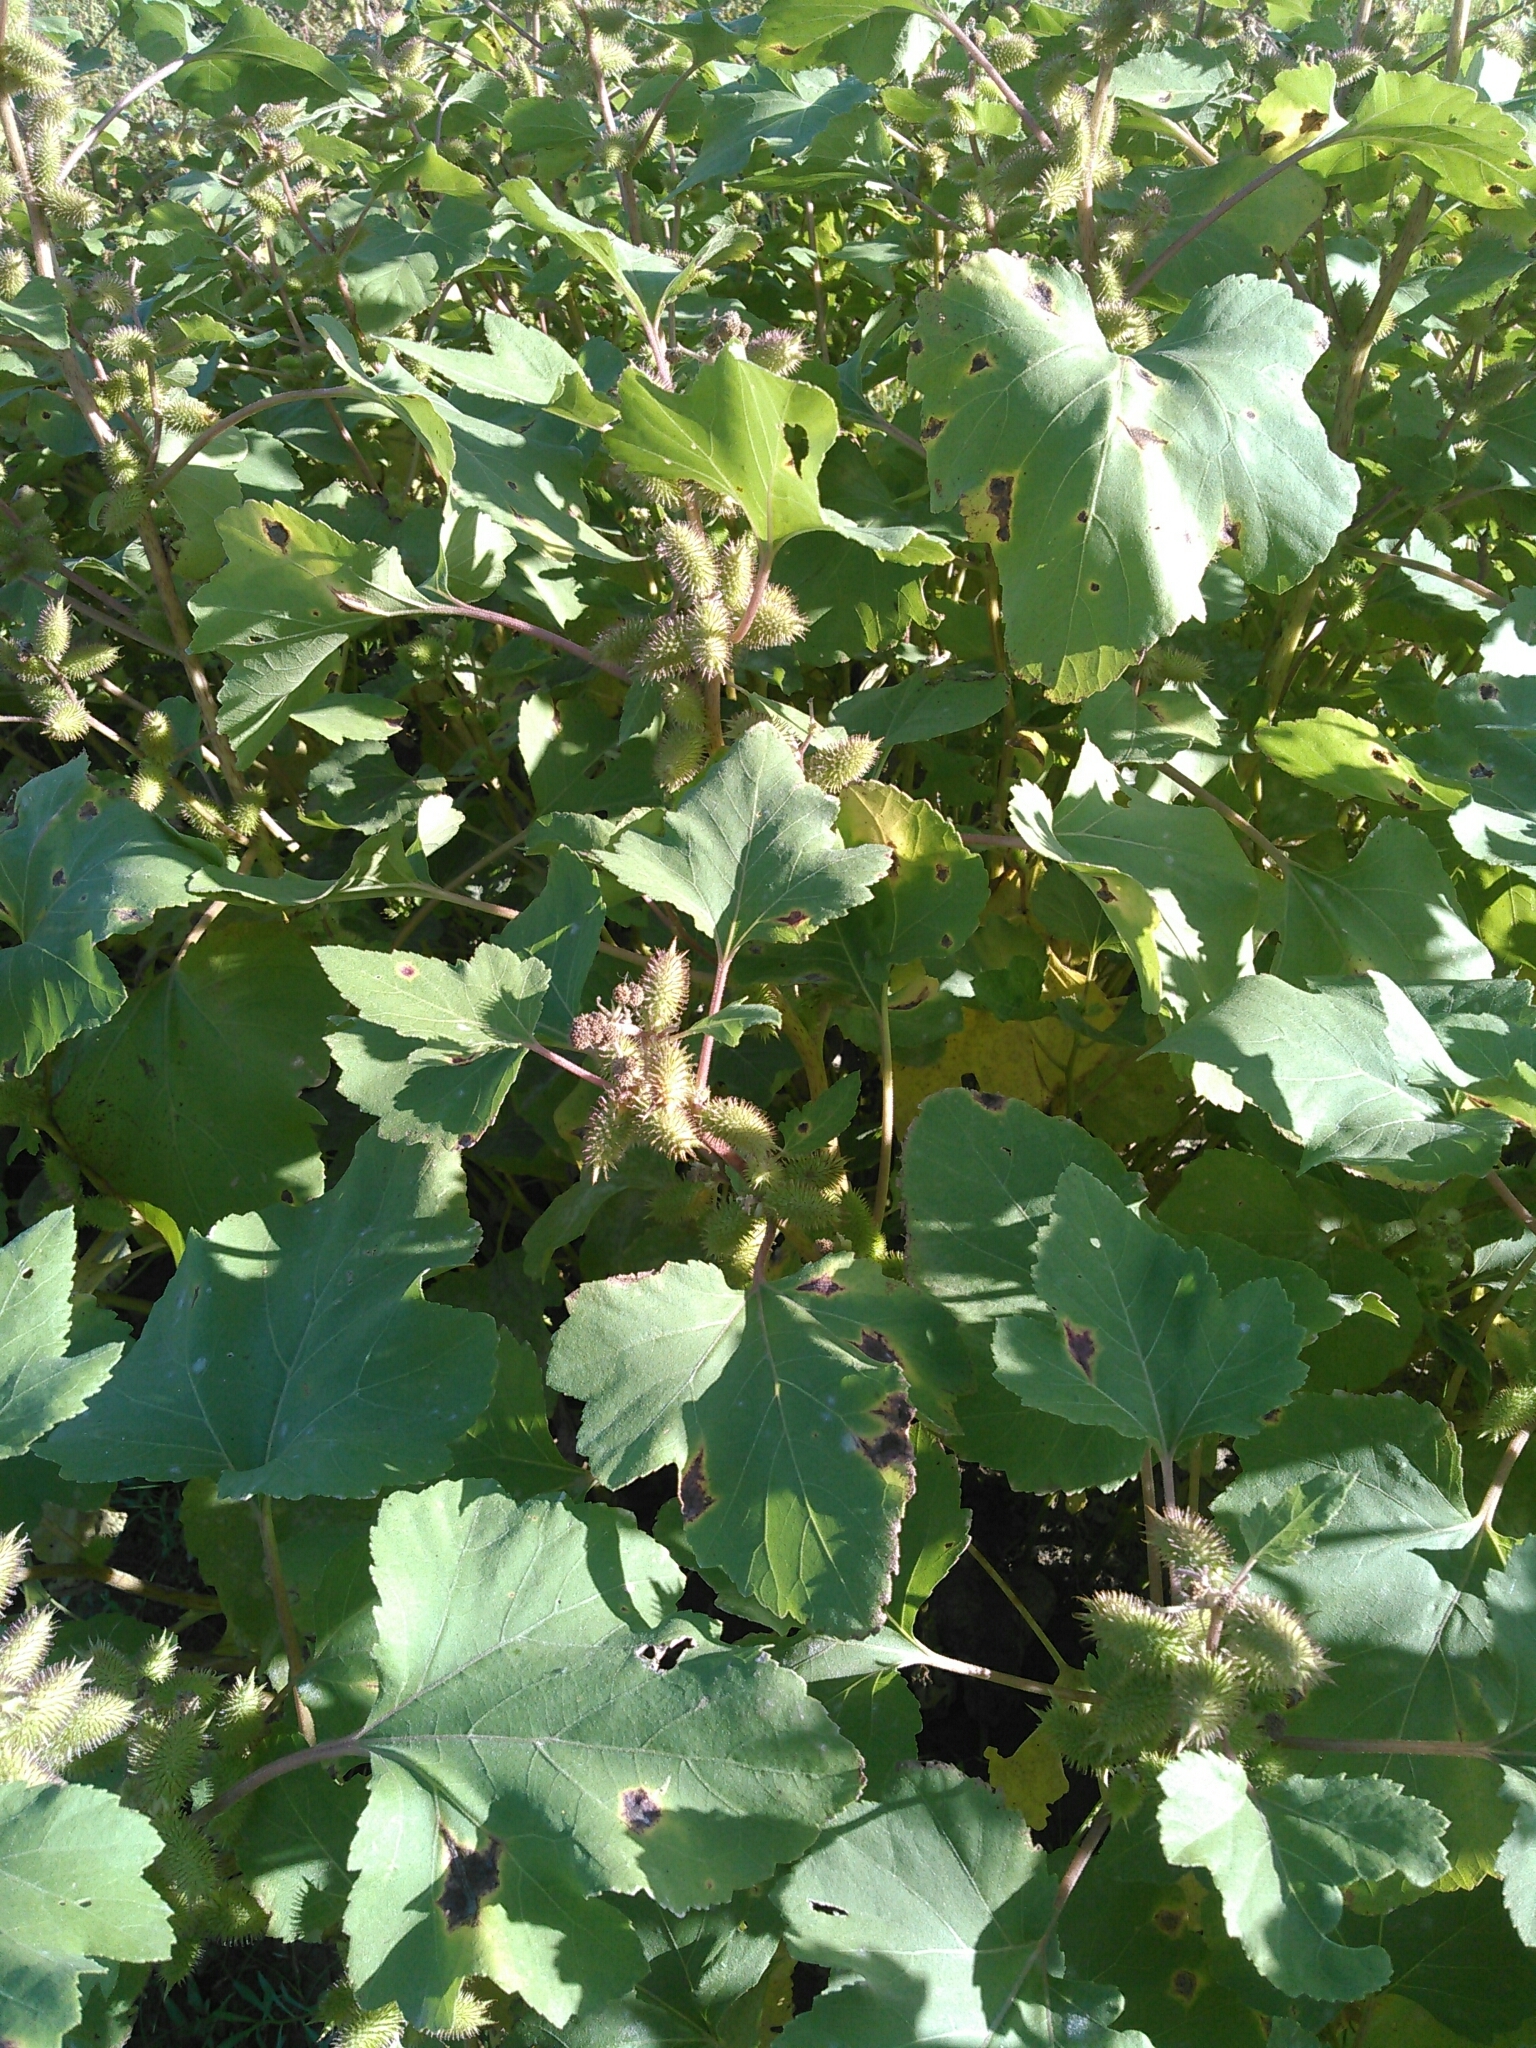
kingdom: Plantae
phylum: Tracheophyta
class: Magnoliopsida
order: Asterales
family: Asteraceae
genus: Xanthium
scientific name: Xanthium strumarium
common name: Rough cocklebur
